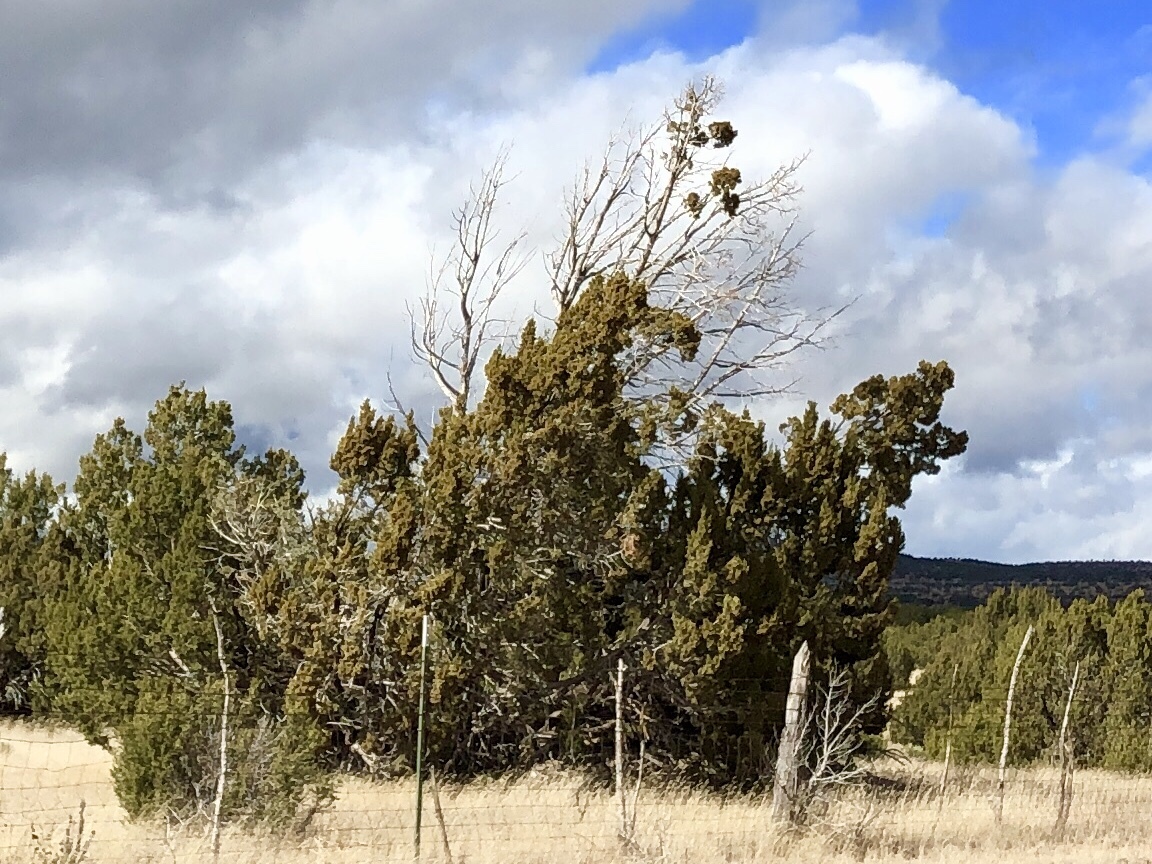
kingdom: Plantae
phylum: Tracheophyta
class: Pinopsida
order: Pinales
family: Cupressaceae
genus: Juniperus
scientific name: Juniperus monosperma
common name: One-seed juniper
